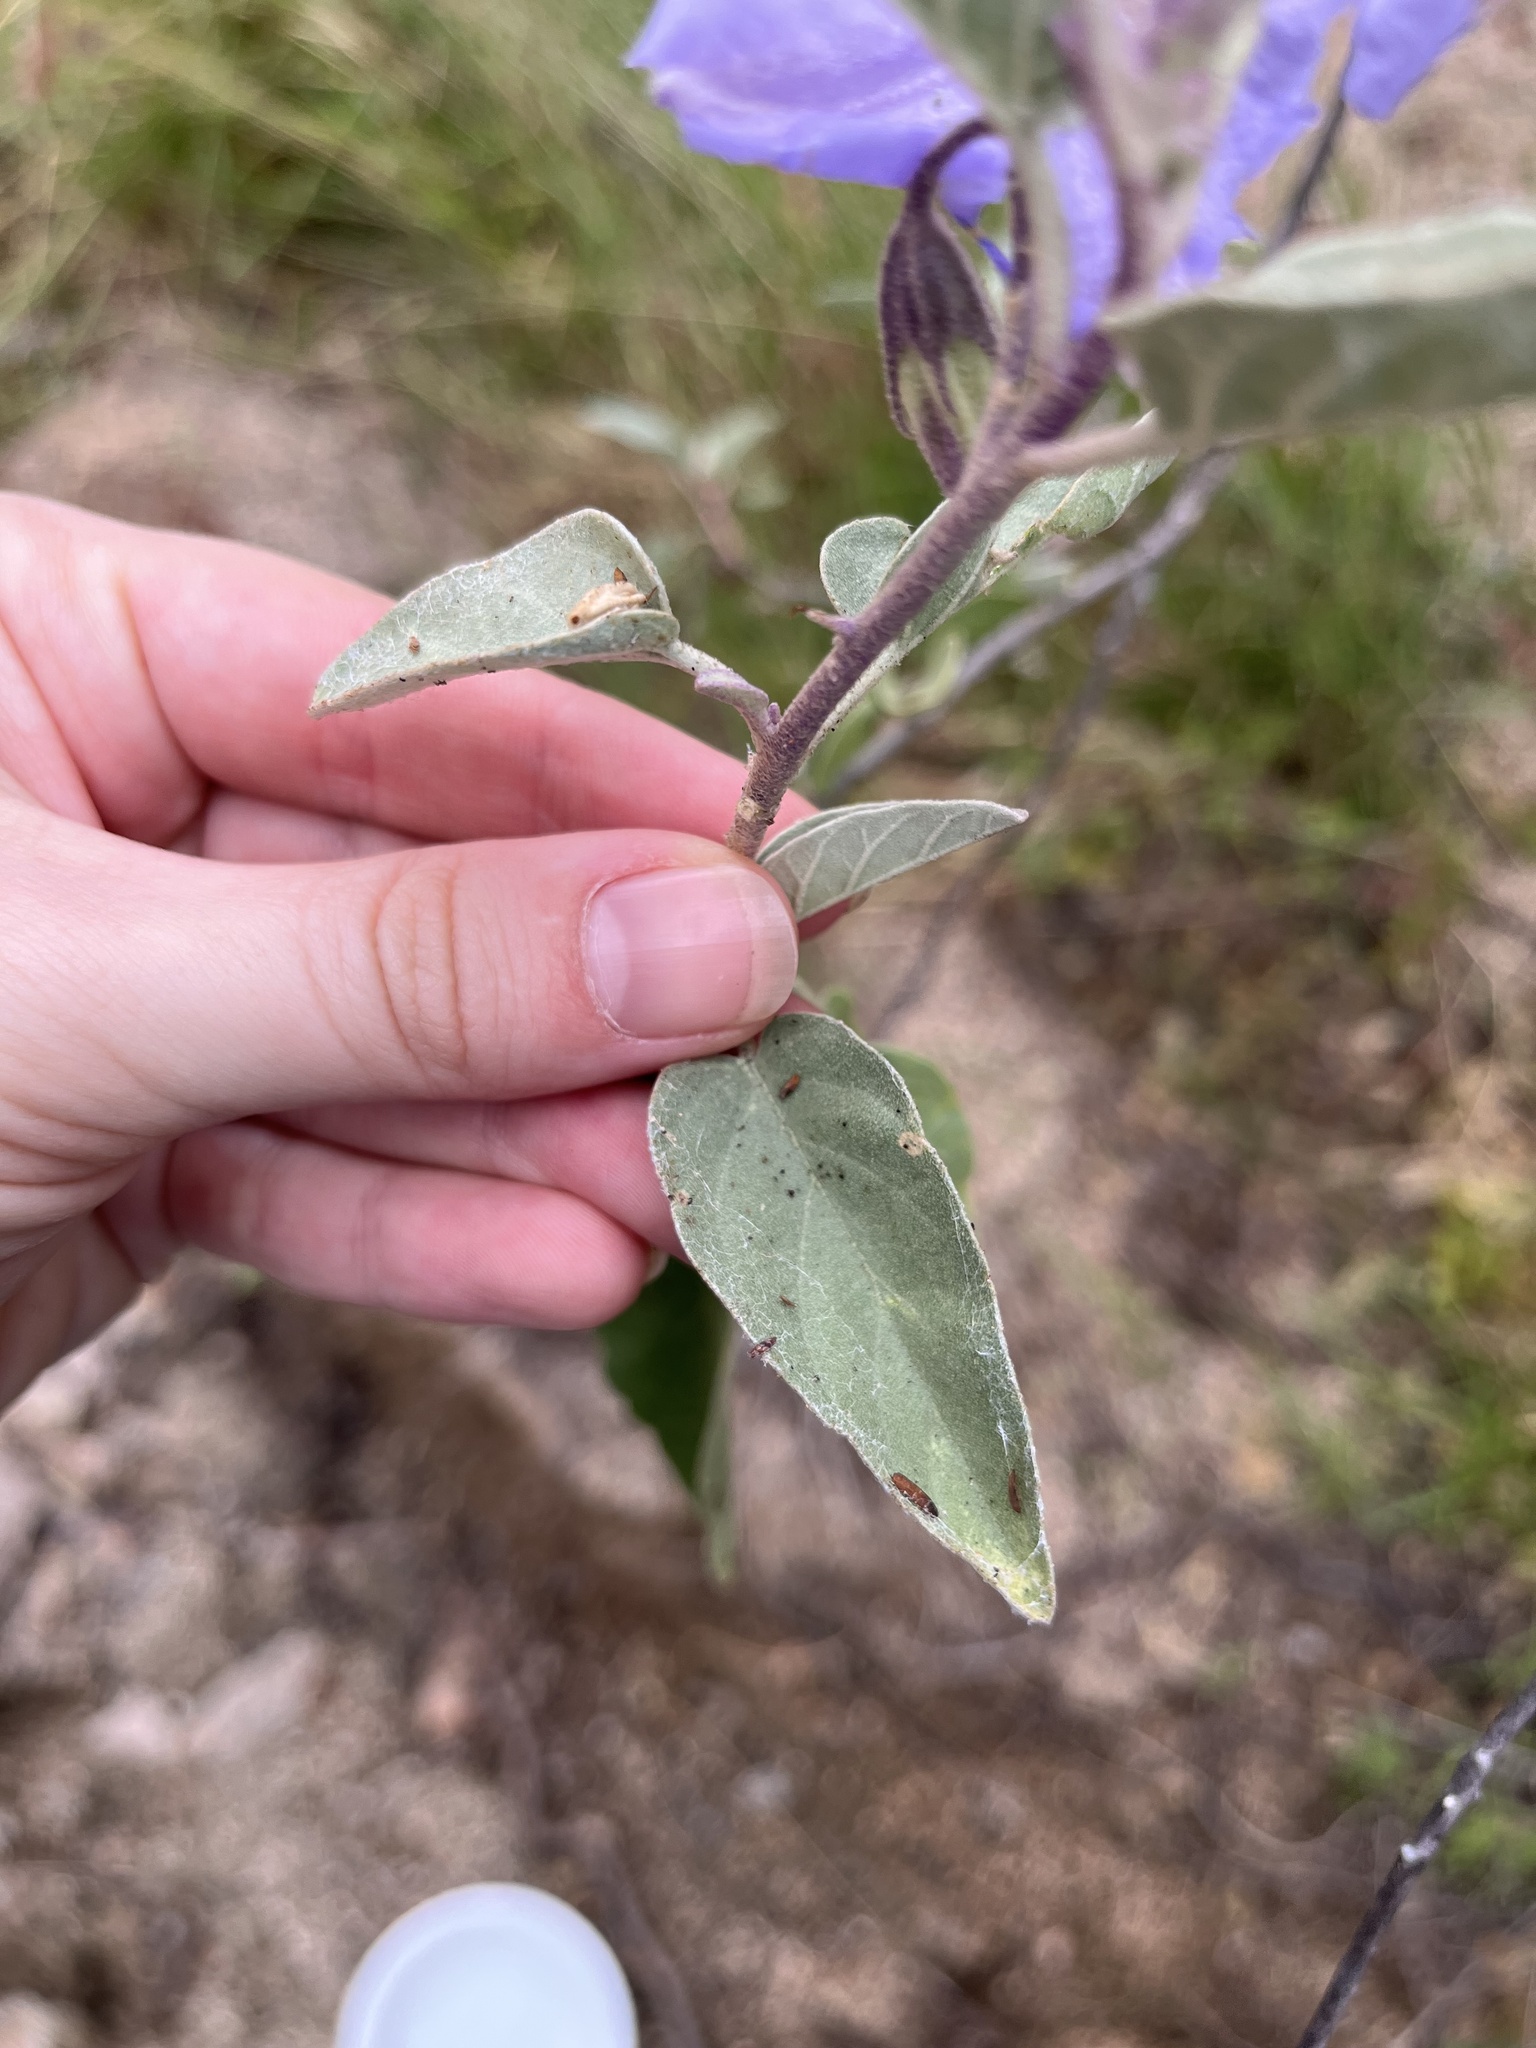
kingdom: Plantae
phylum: Tracheophyta
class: Magnoliopsida
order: Solanales
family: Solanaceae
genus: Solanum
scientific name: Solanum hindsianum
